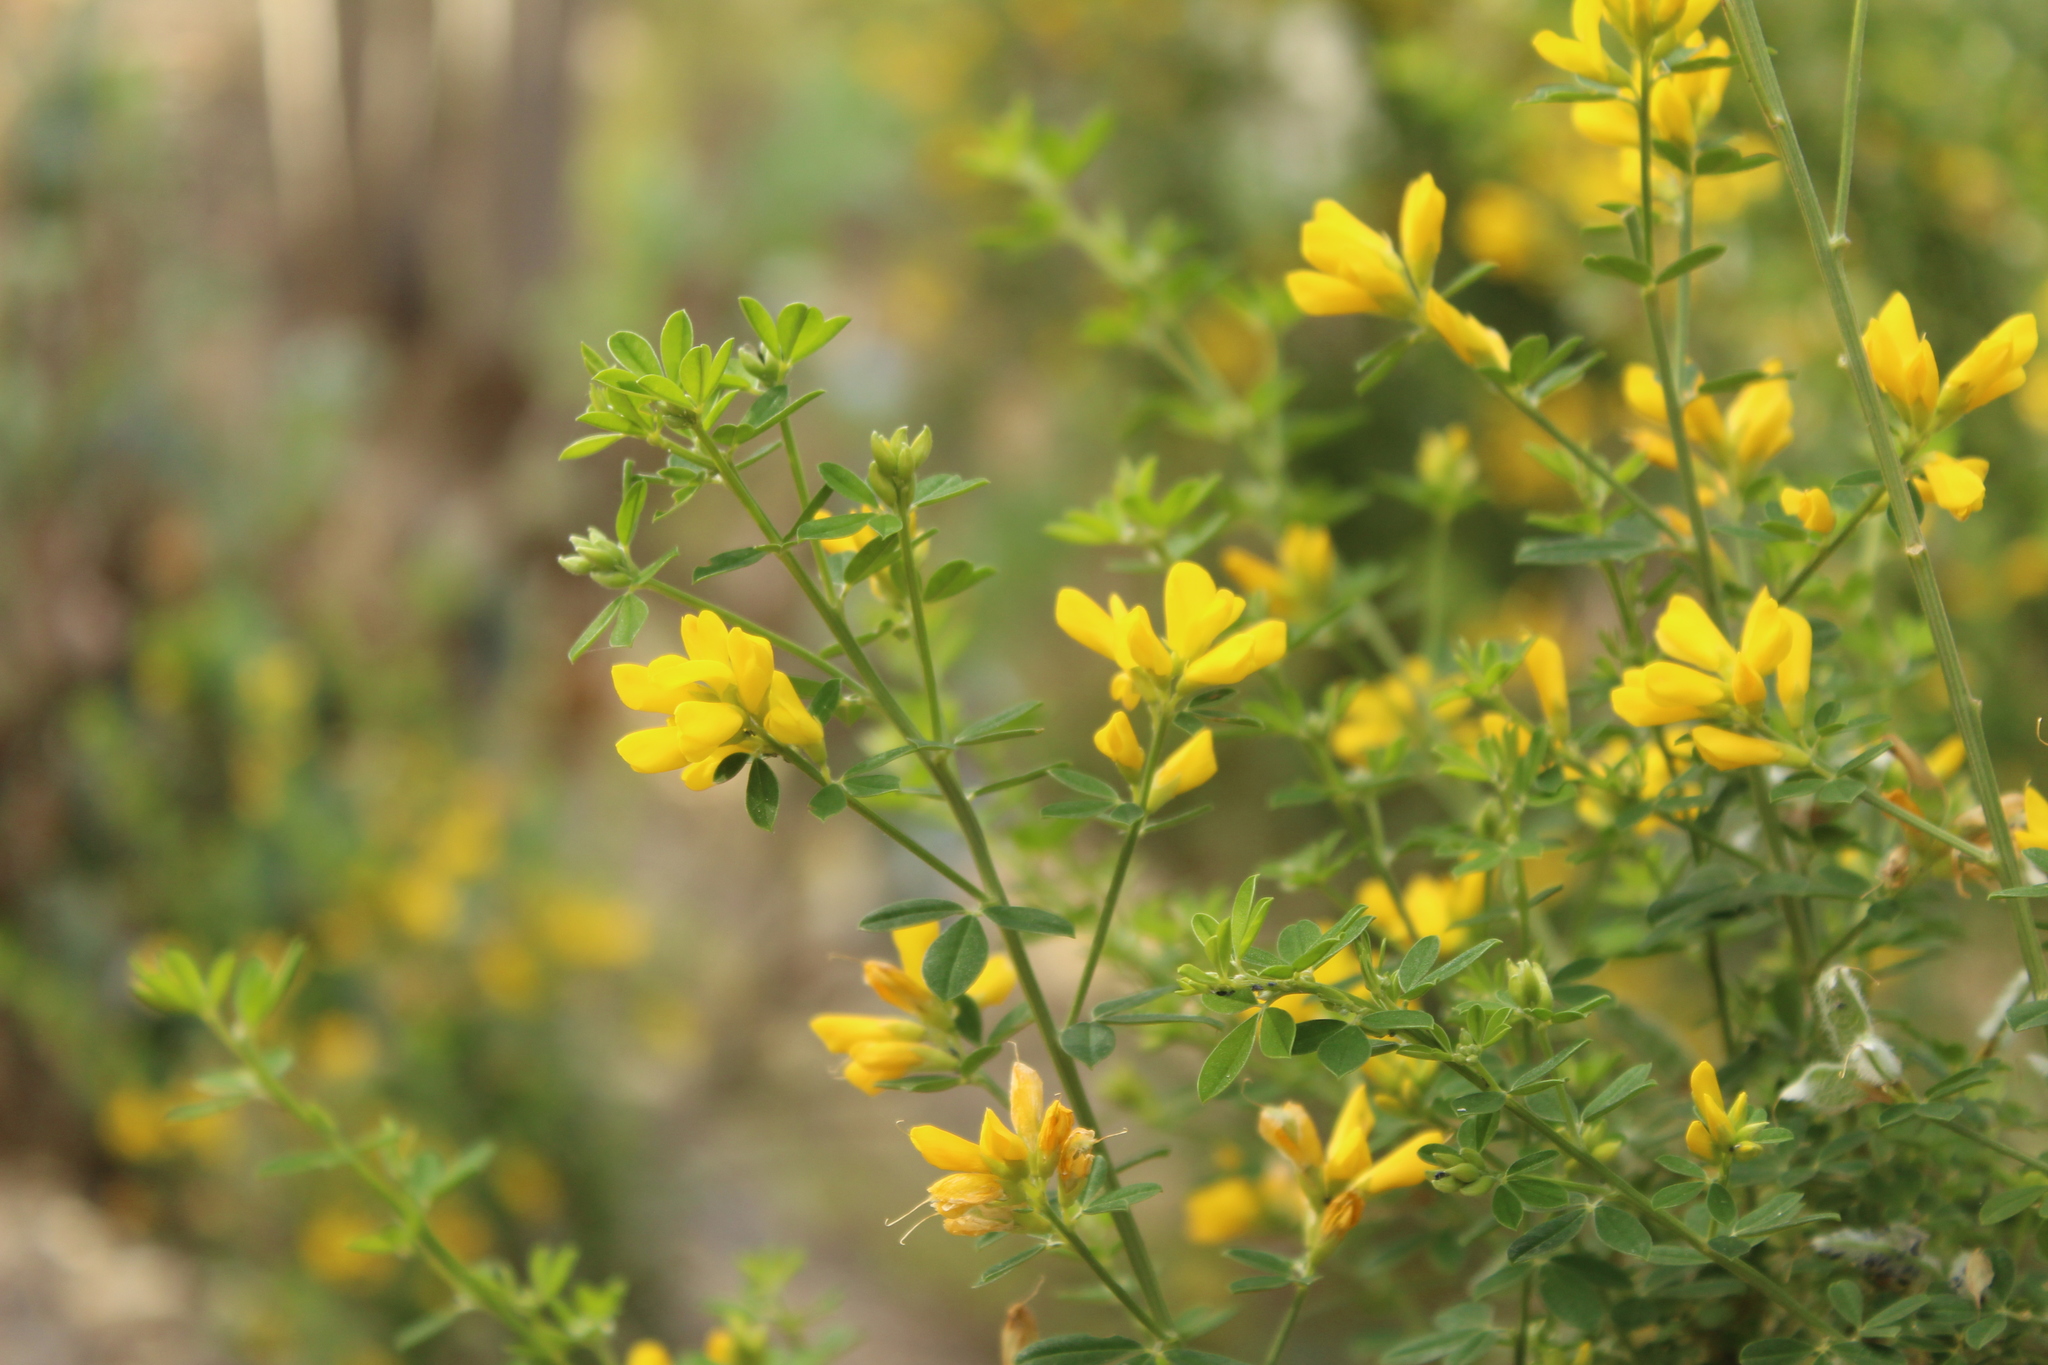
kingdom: Plantae
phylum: Tracheophyta
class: Magnoliopsida
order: Fabales
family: Fabaceae
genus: Genista
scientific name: Genista monspessulana
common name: Montpellier broom
